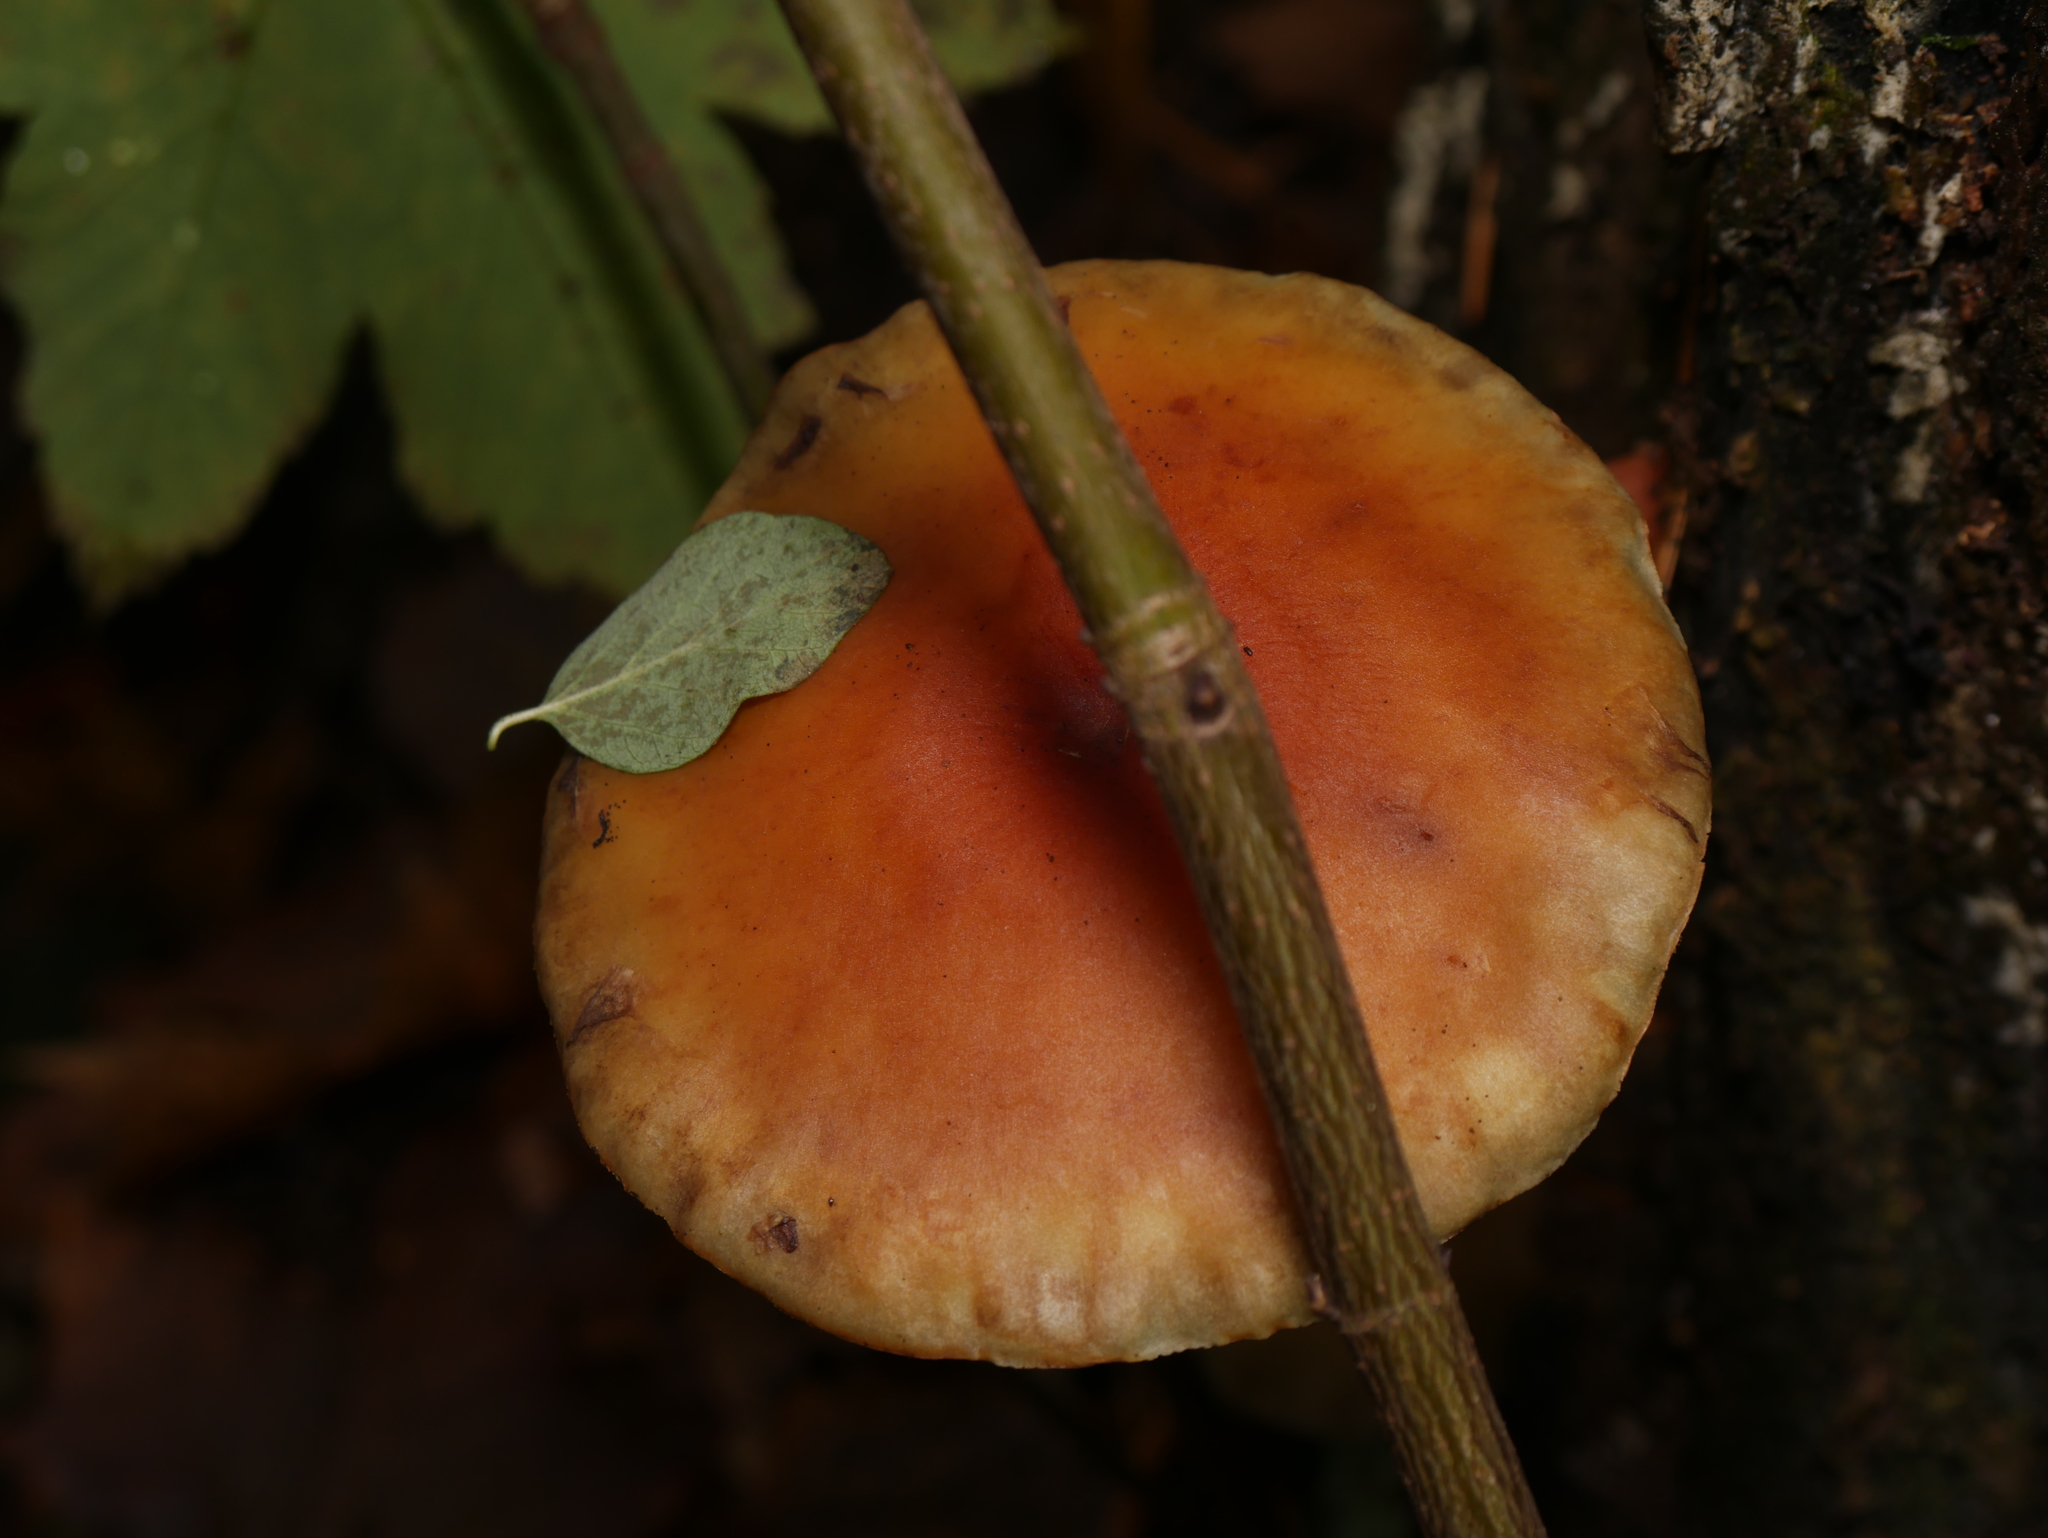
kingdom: Fungi
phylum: Basidiomycota
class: Agaricomycetes
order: Agaricales
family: Strophariaceae
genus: Hypholoma
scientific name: Hypholoma fasciculare
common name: Sulphur tuft
